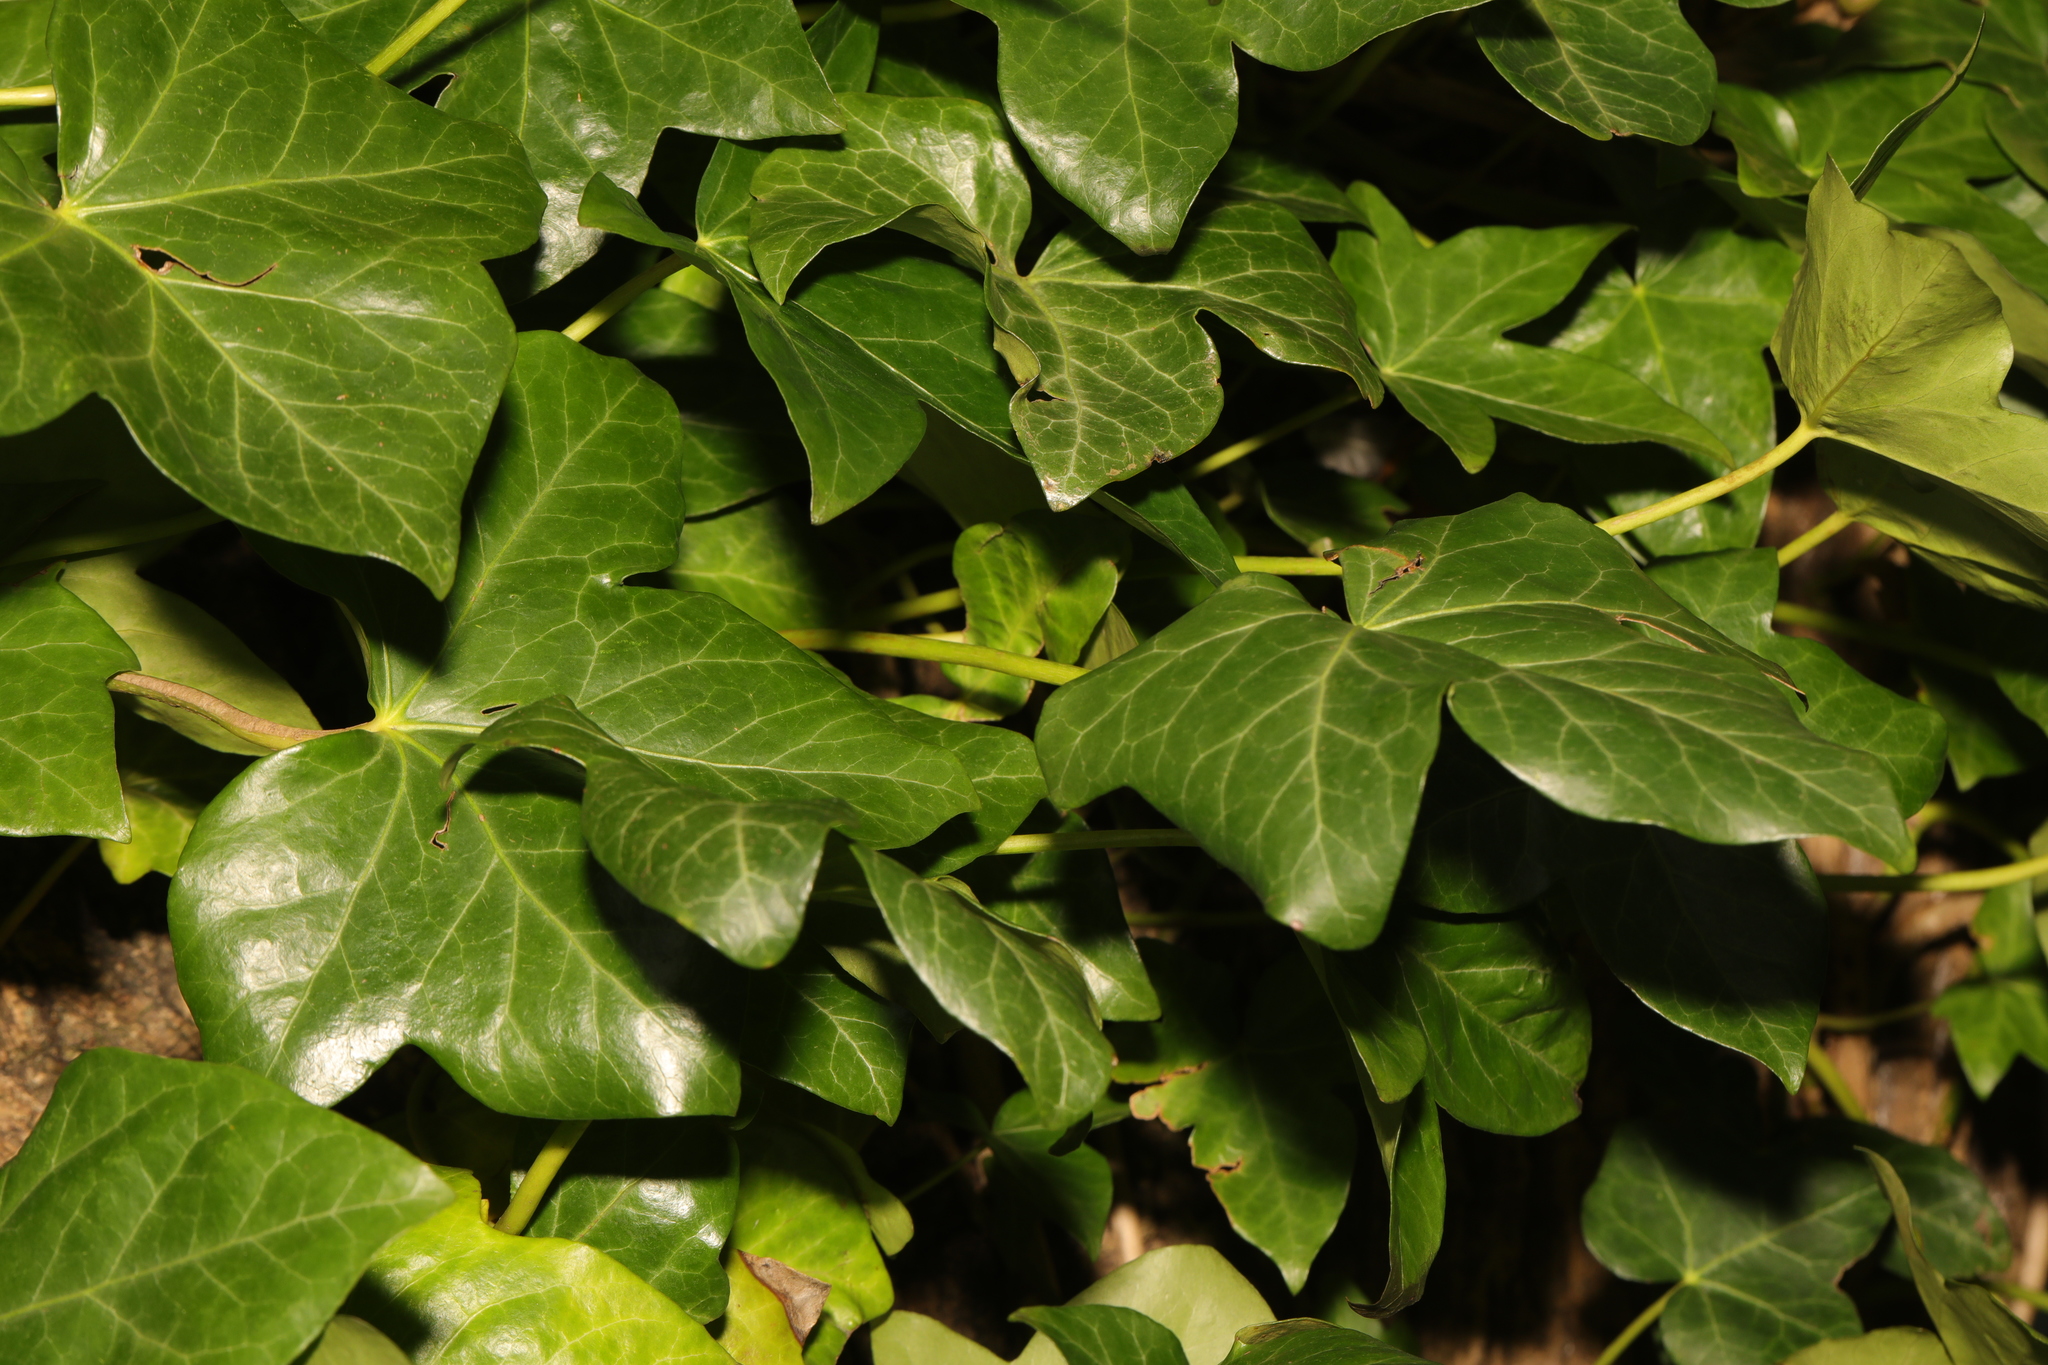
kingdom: Plantae
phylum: Tracheophyta
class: Magnoliopsida
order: Apiales
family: Araliaceae
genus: Hedera
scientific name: Hedera helix
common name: Ivy
